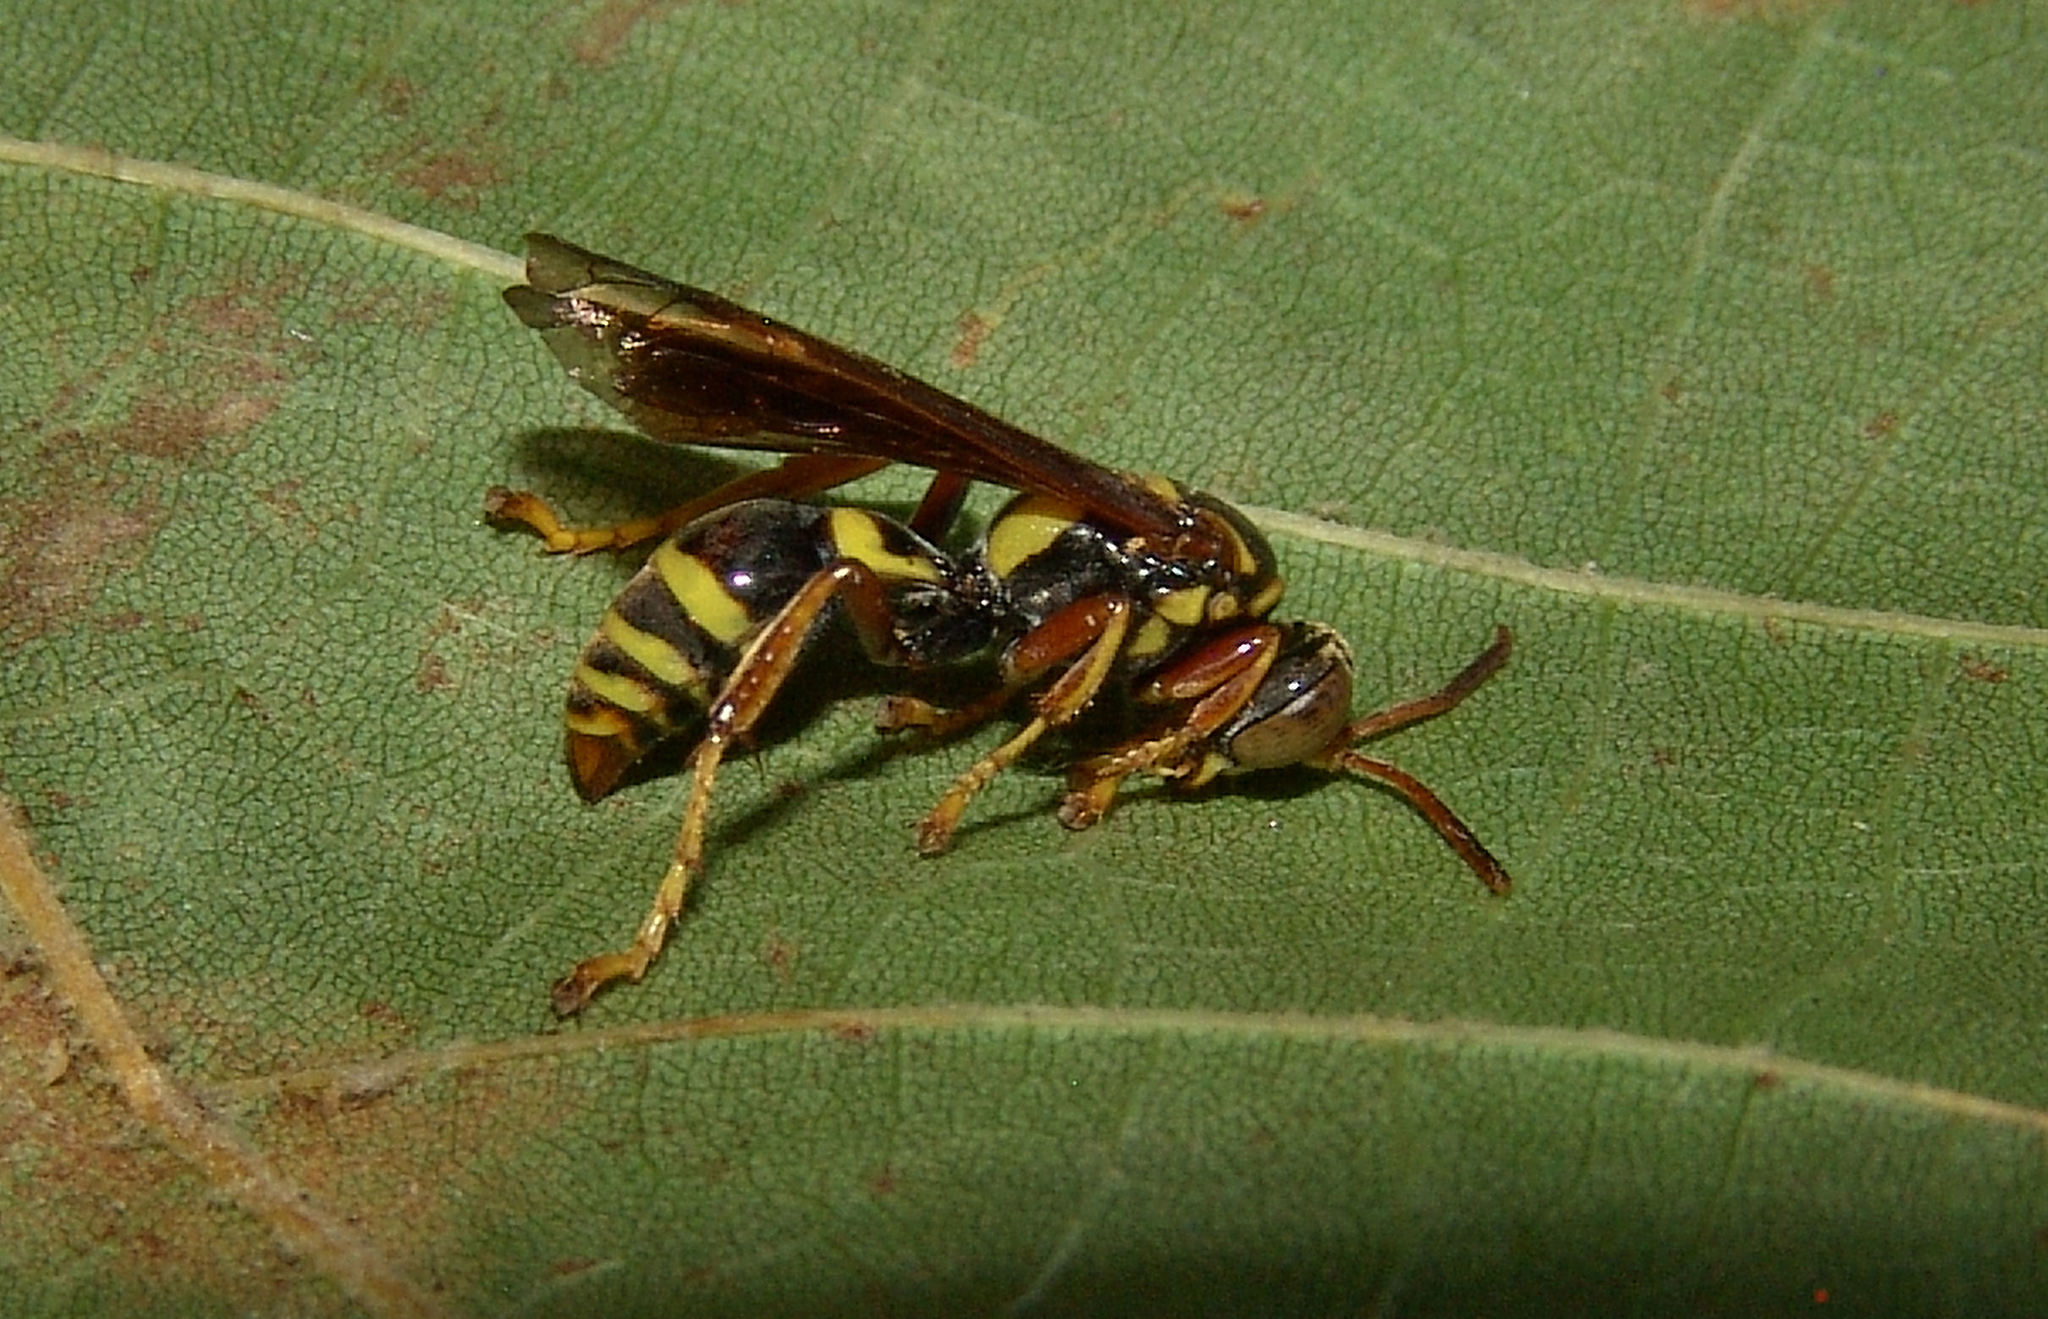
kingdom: Animalia
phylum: Arthropoda
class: Insecta
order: Hymenoptera
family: Crabronidae
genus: Saygorytes
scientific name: Saygorytes phaleratus
